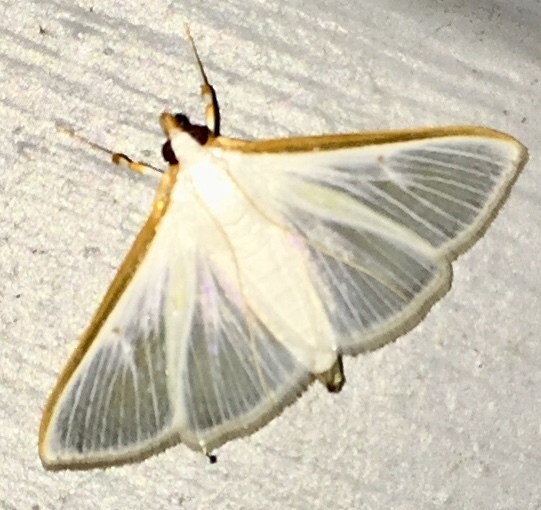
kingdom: Animalia
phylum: Arthropoda
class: Insecta
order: Lepidoptera
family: Crambidae
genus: Diaphania
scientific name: Diaphania costata
